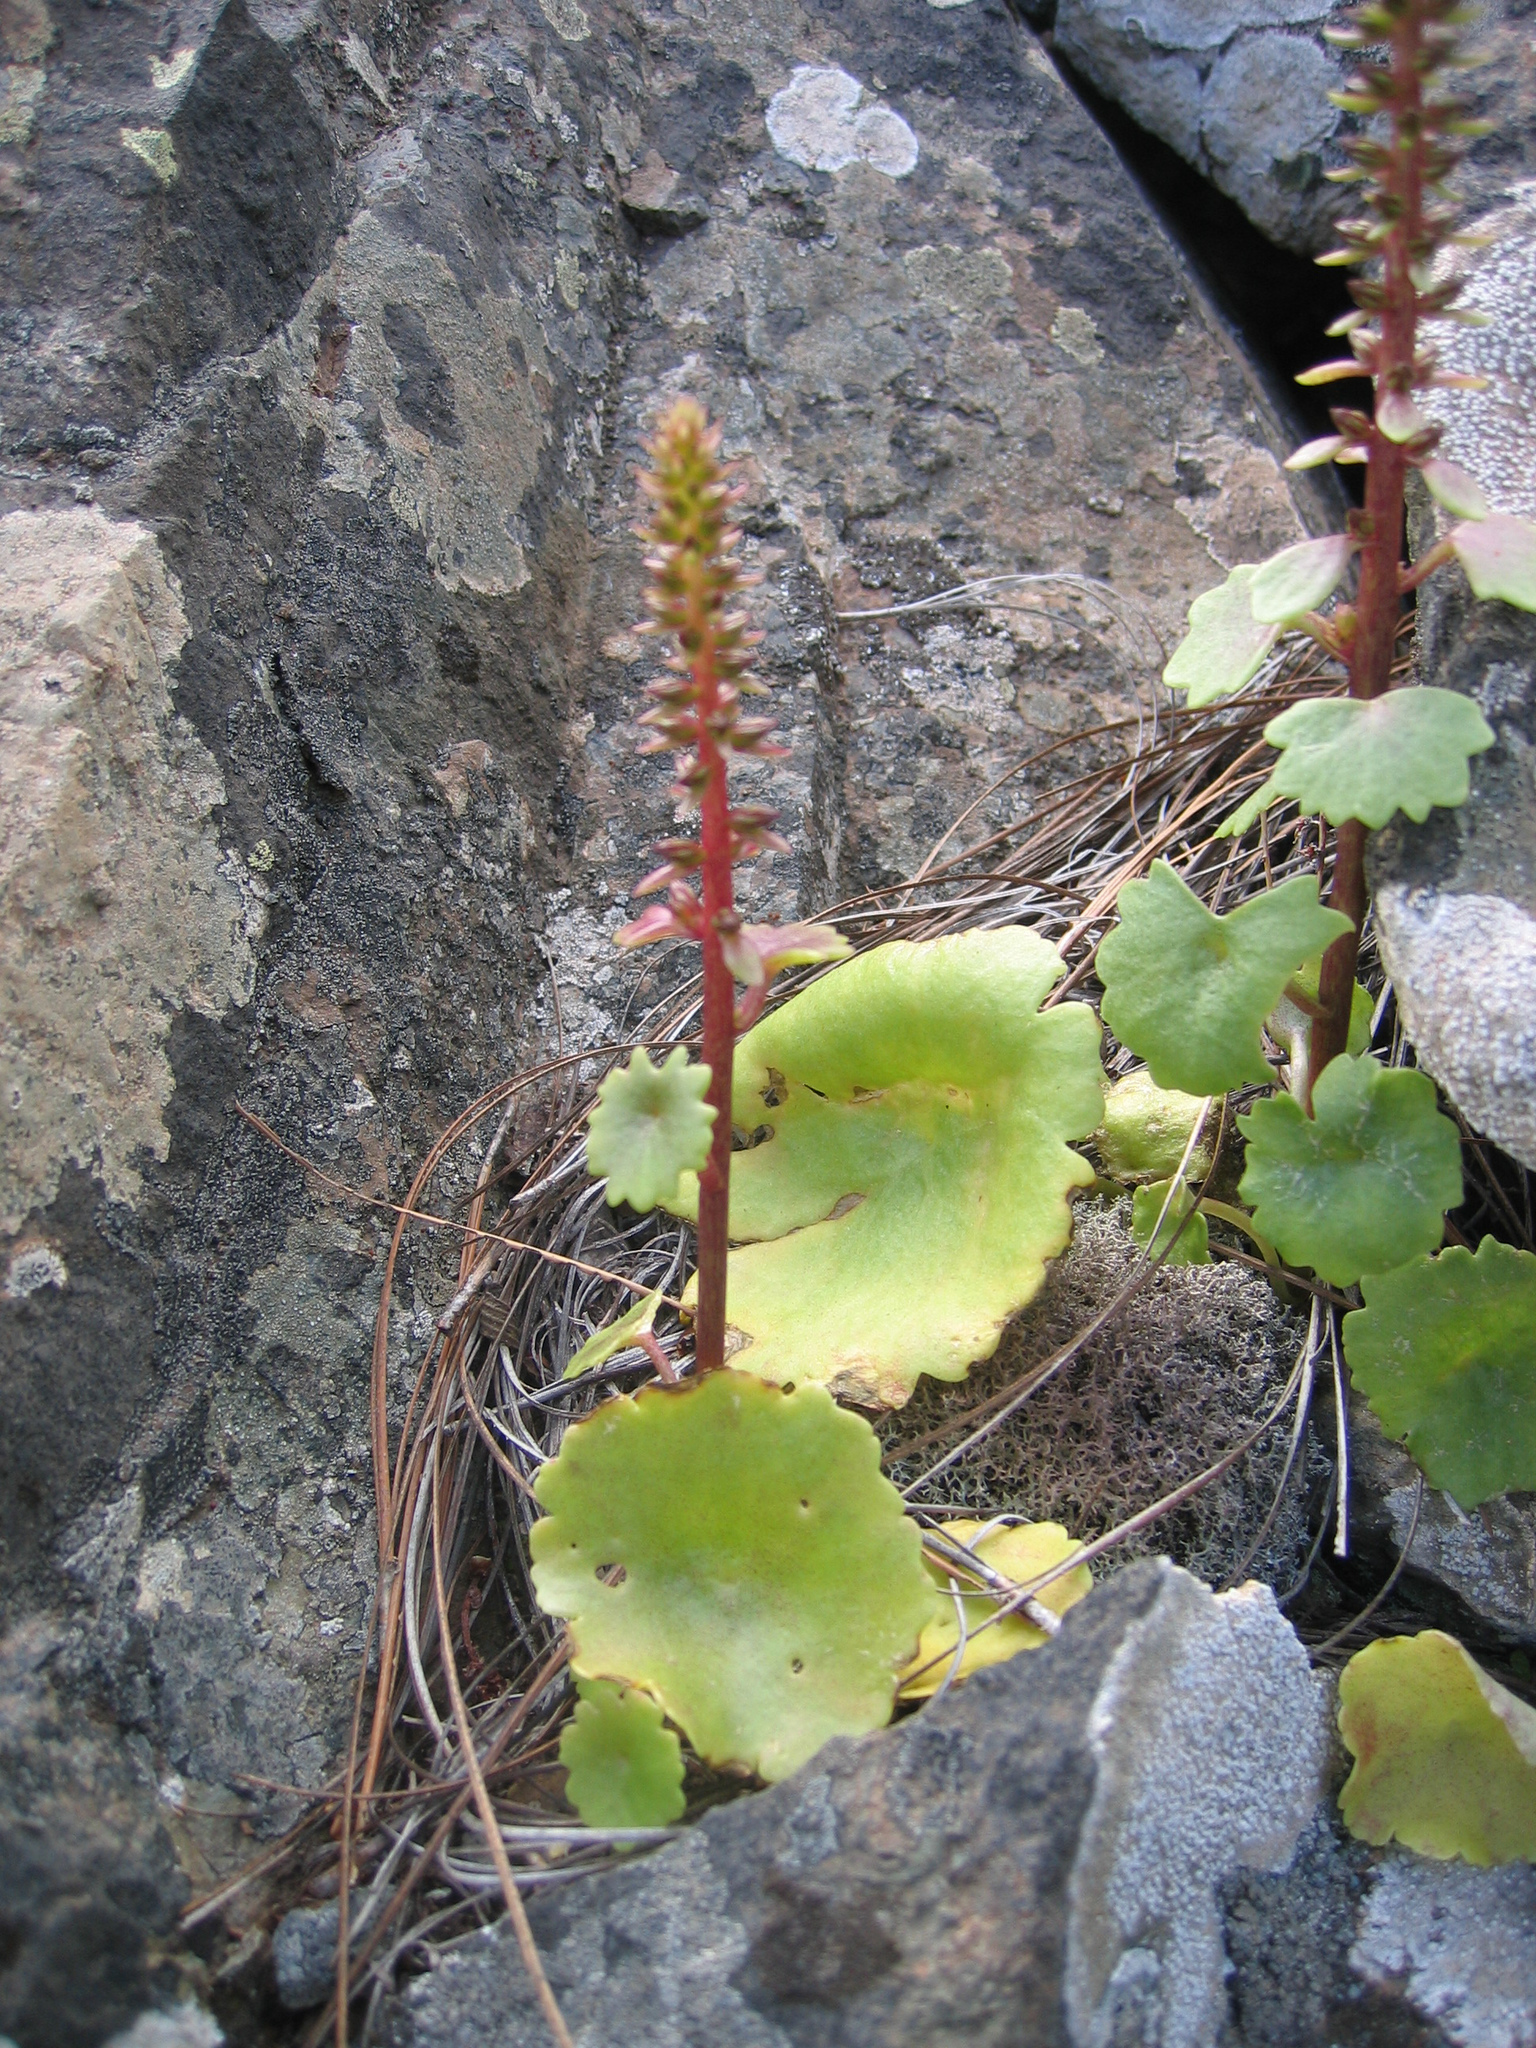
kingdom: Plantae
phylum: Tracheophyta
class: Magnoliopsida
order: Saxifragales
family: Crassulaceae
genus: Umbilicus
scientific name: Umbilicus horizontalis
